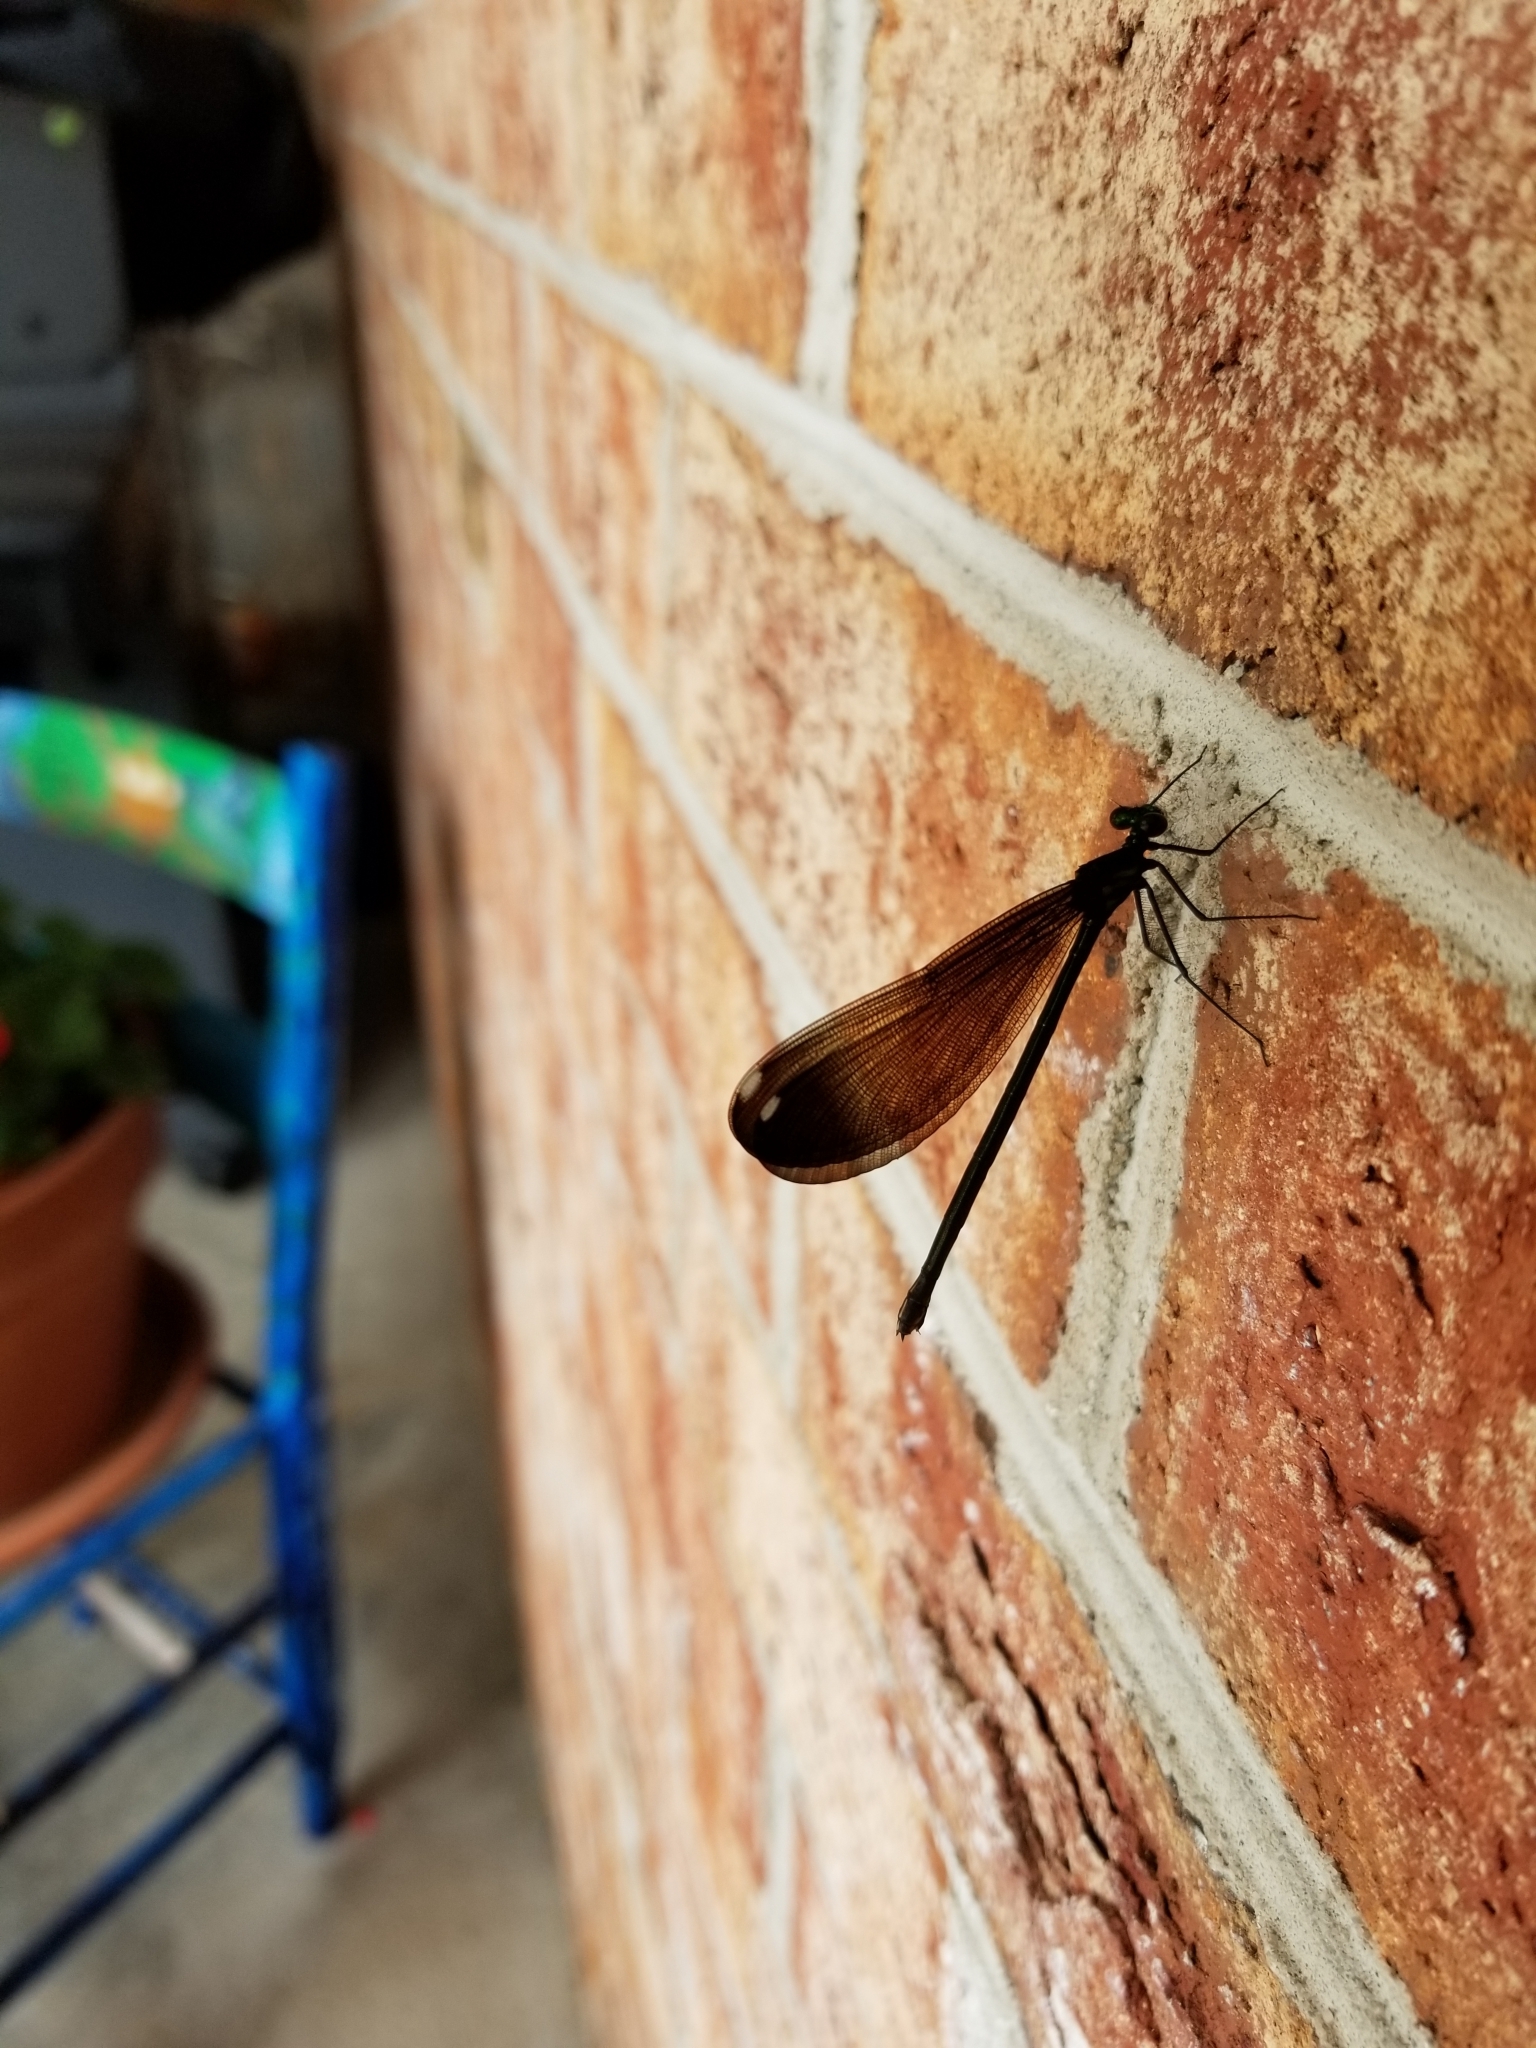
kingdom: Animalia
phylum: Arthropoda
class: Insecta
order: Odonata
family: Calopterygidae
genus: Calopteryx
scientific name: Calopteryx maculata
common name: Ebony jewelwing
